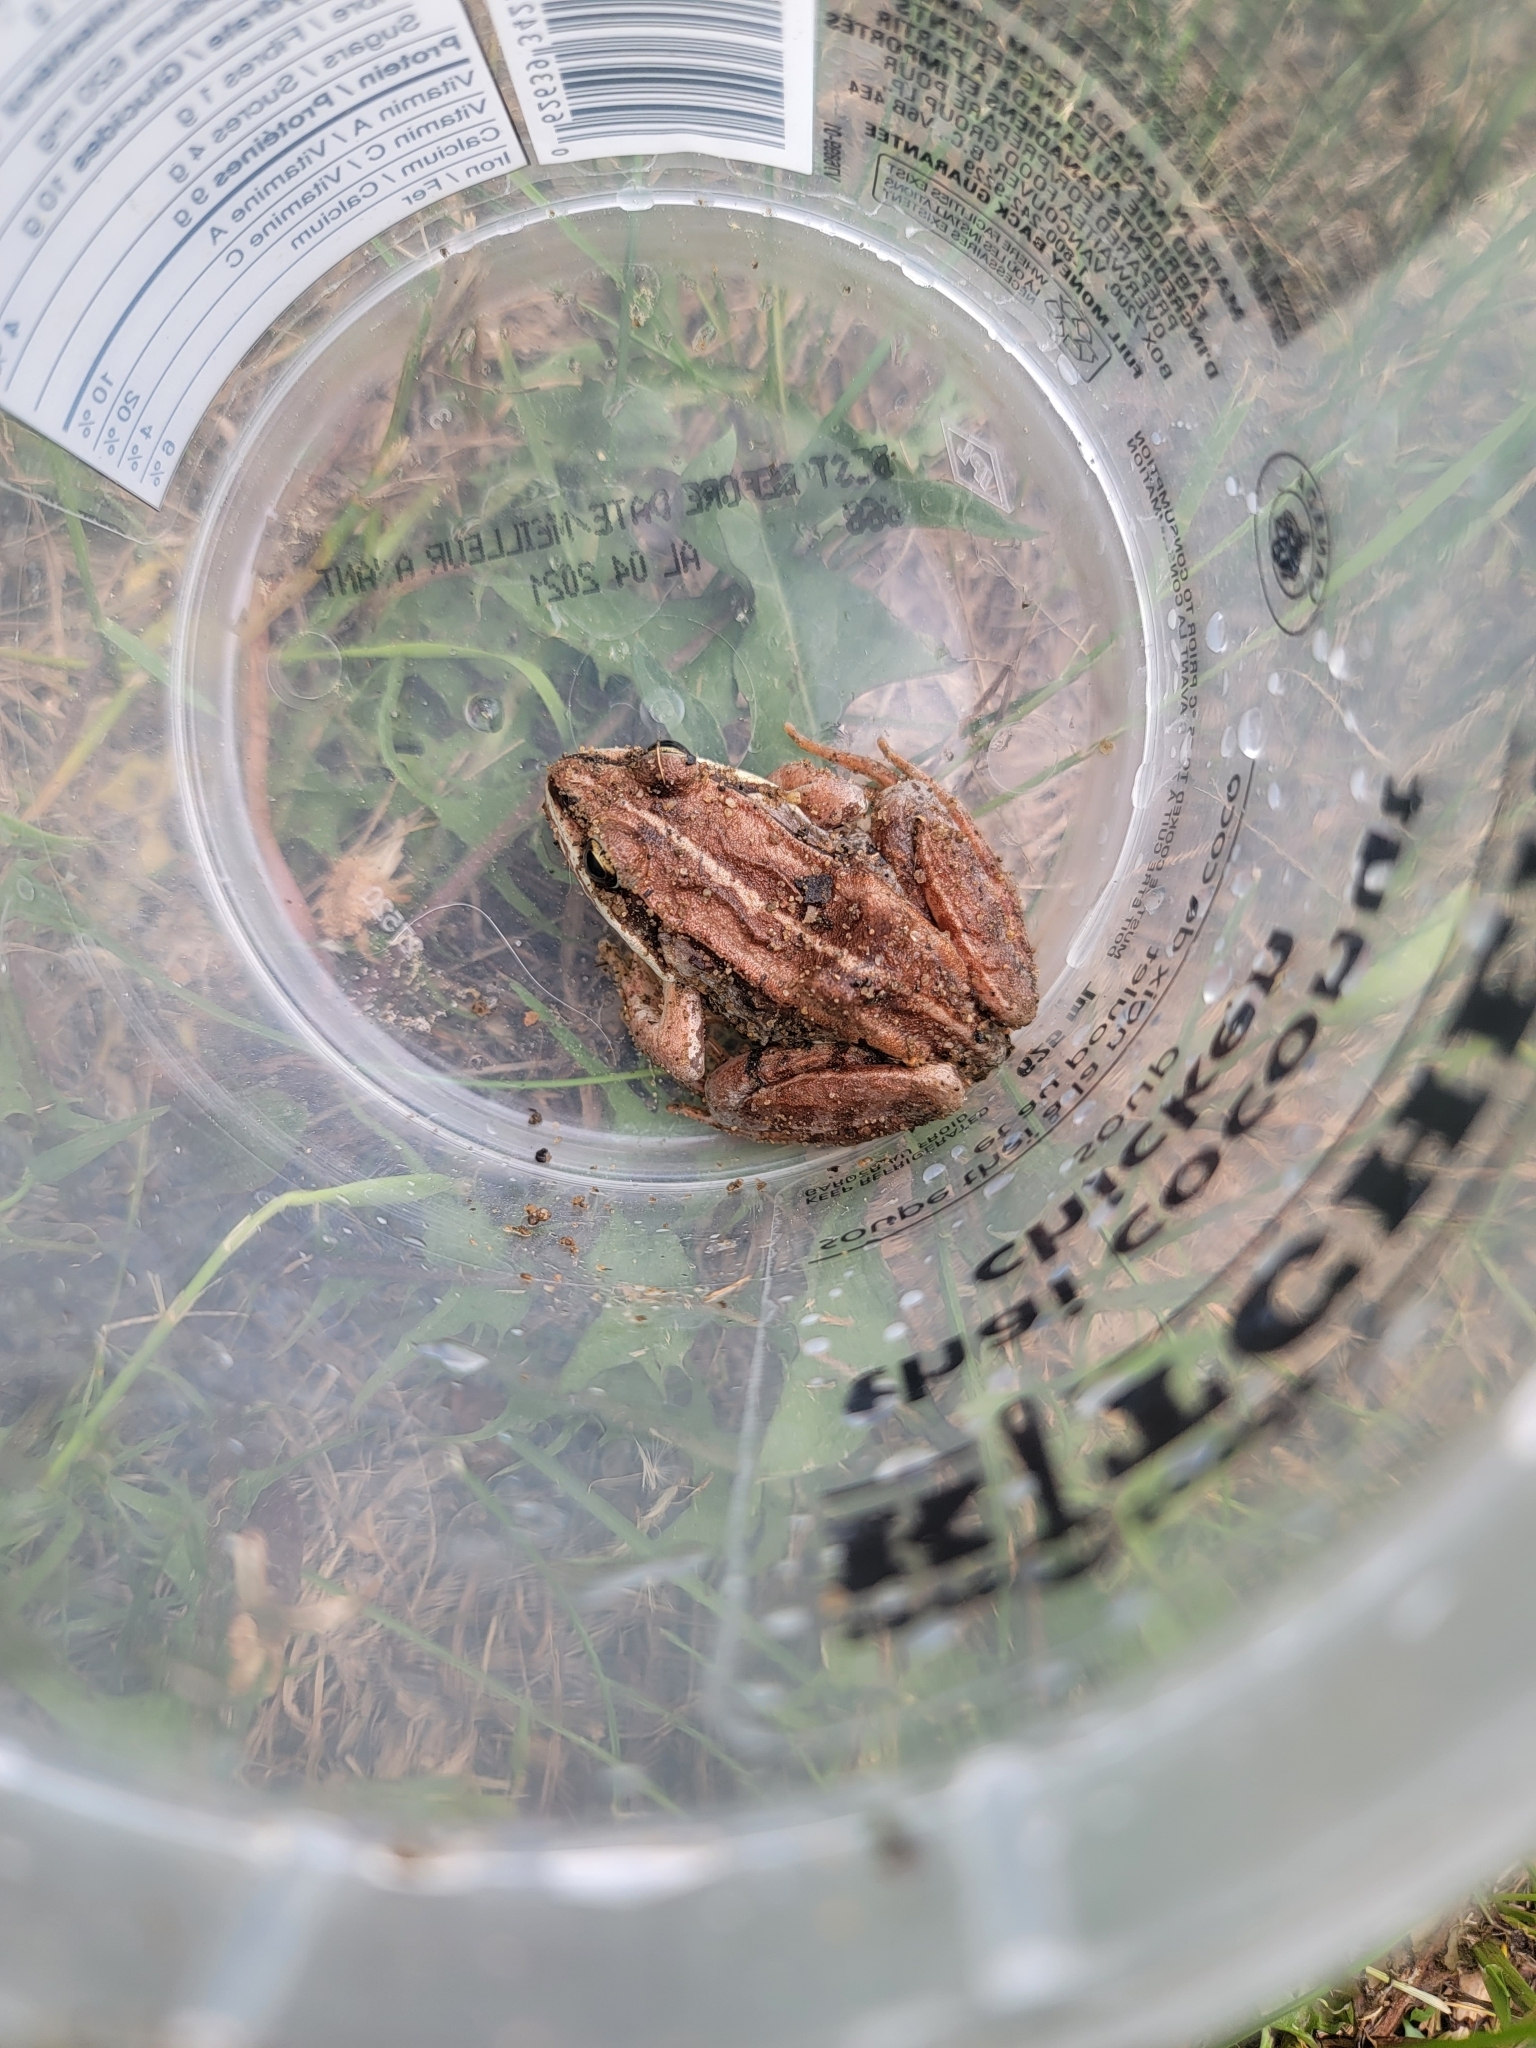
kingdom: Animalia
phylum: Chordata
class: Amphibia
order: Anura
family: Ranidae
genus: Lithobates
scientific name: Lithobates sylvaticus
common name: Wood frog
